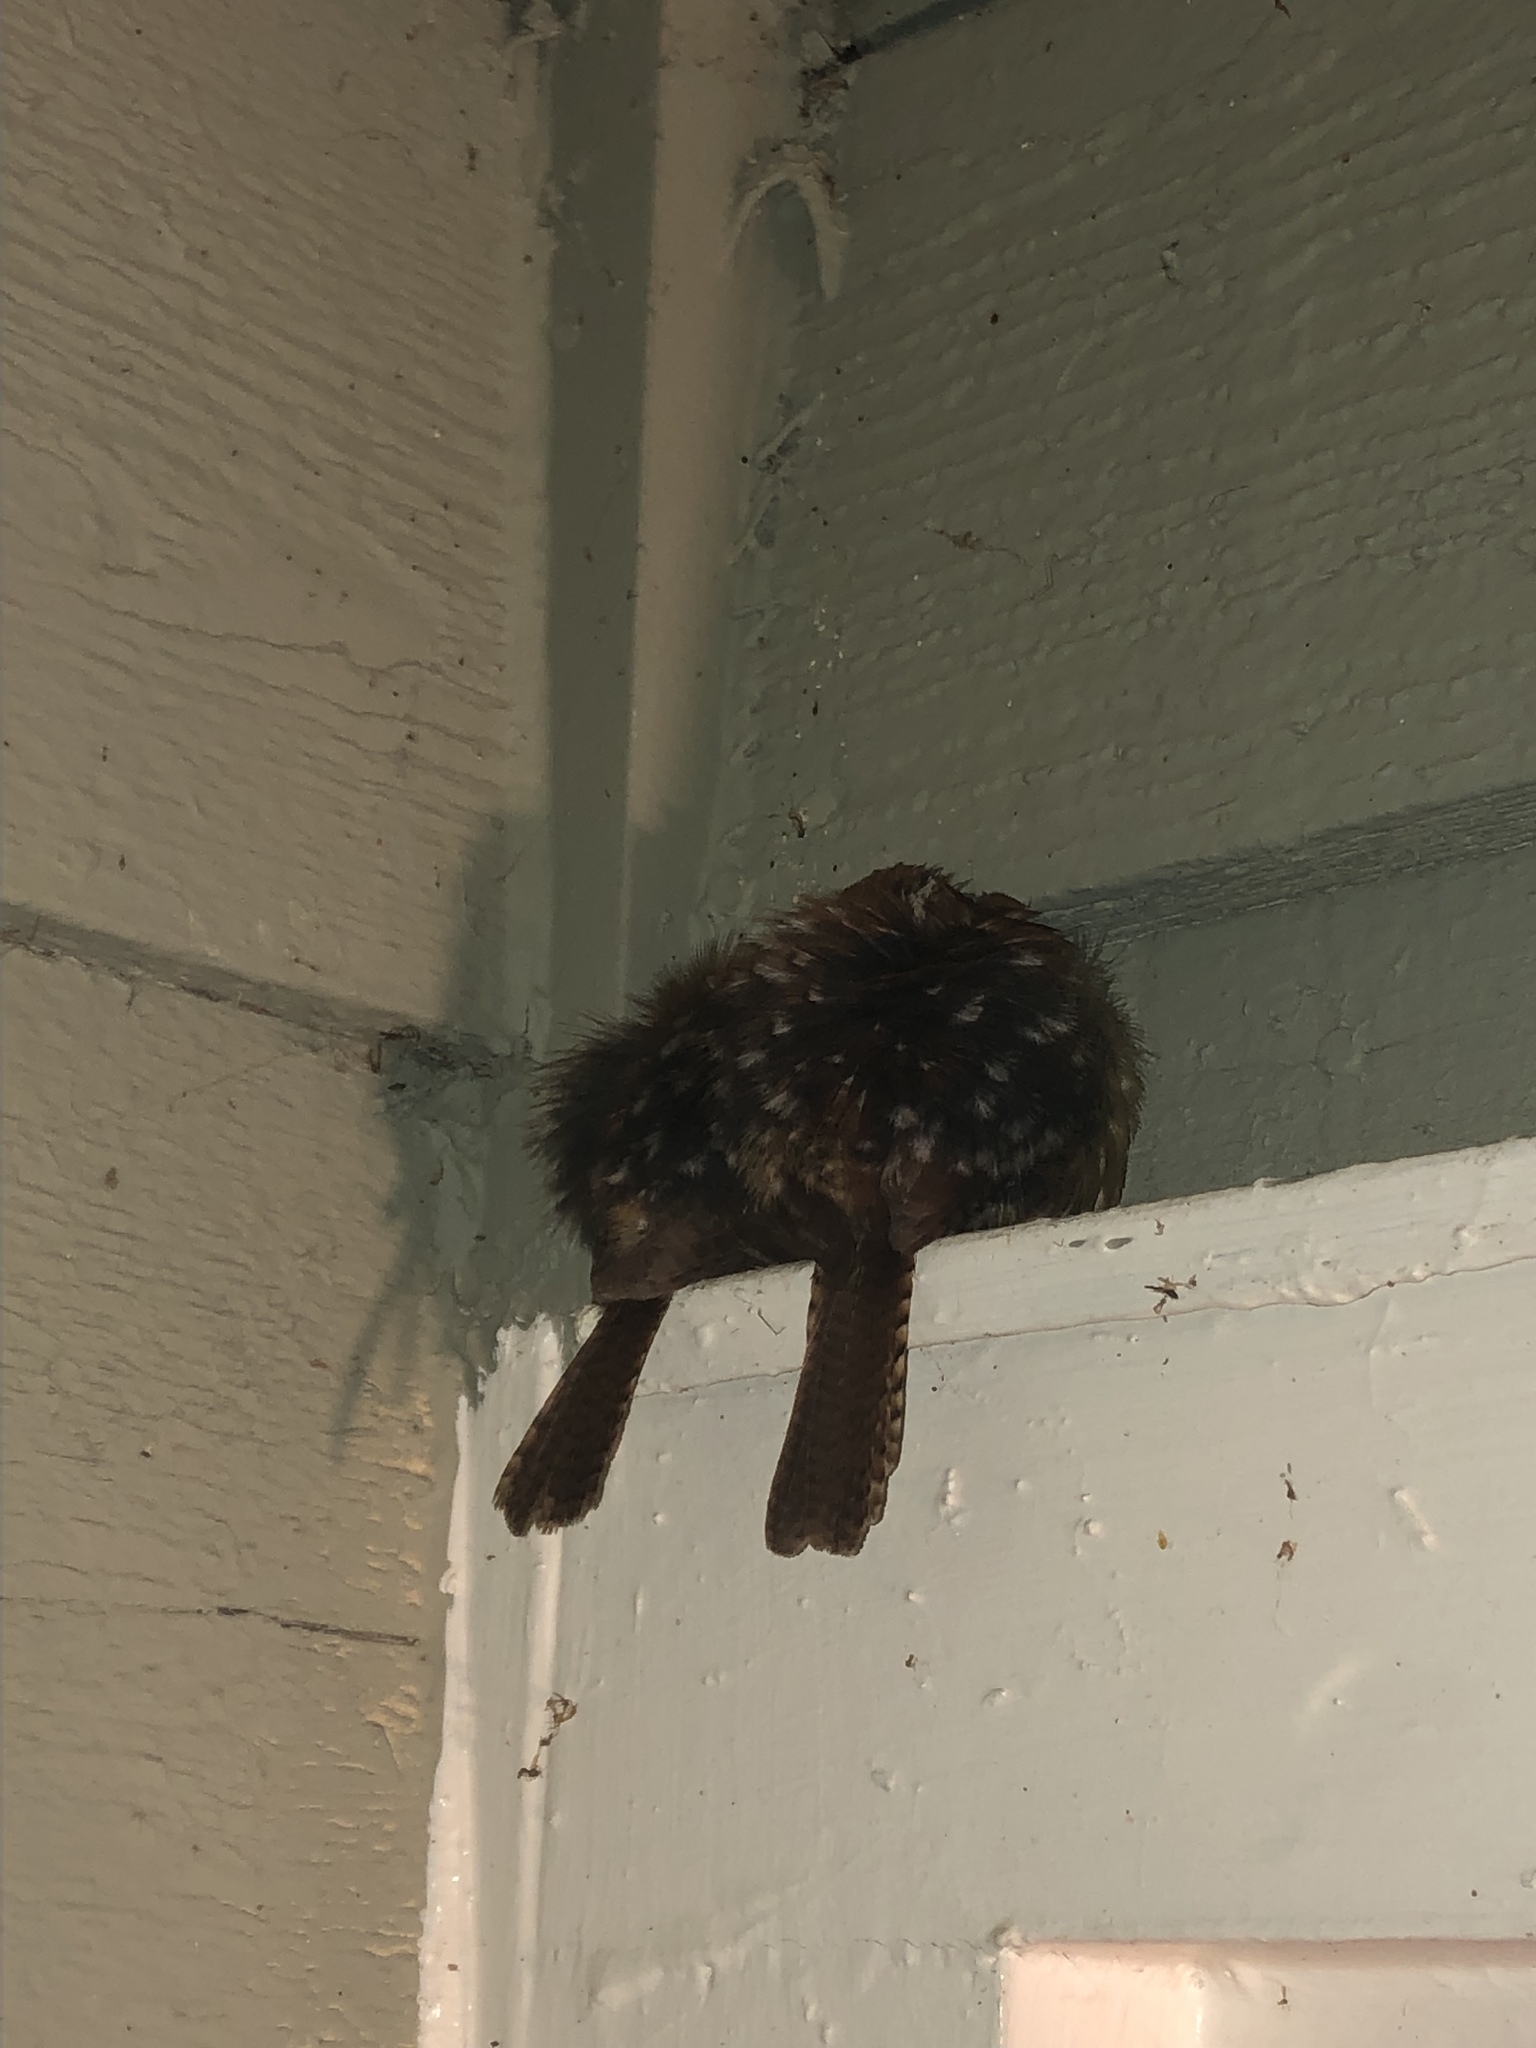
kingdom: Animalia
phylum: Chordata
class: Aves
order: Passeriformes
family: Troglodytidae
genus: Thryothorus
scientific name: Thryothorus ludovicianus
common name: Carolina wren
